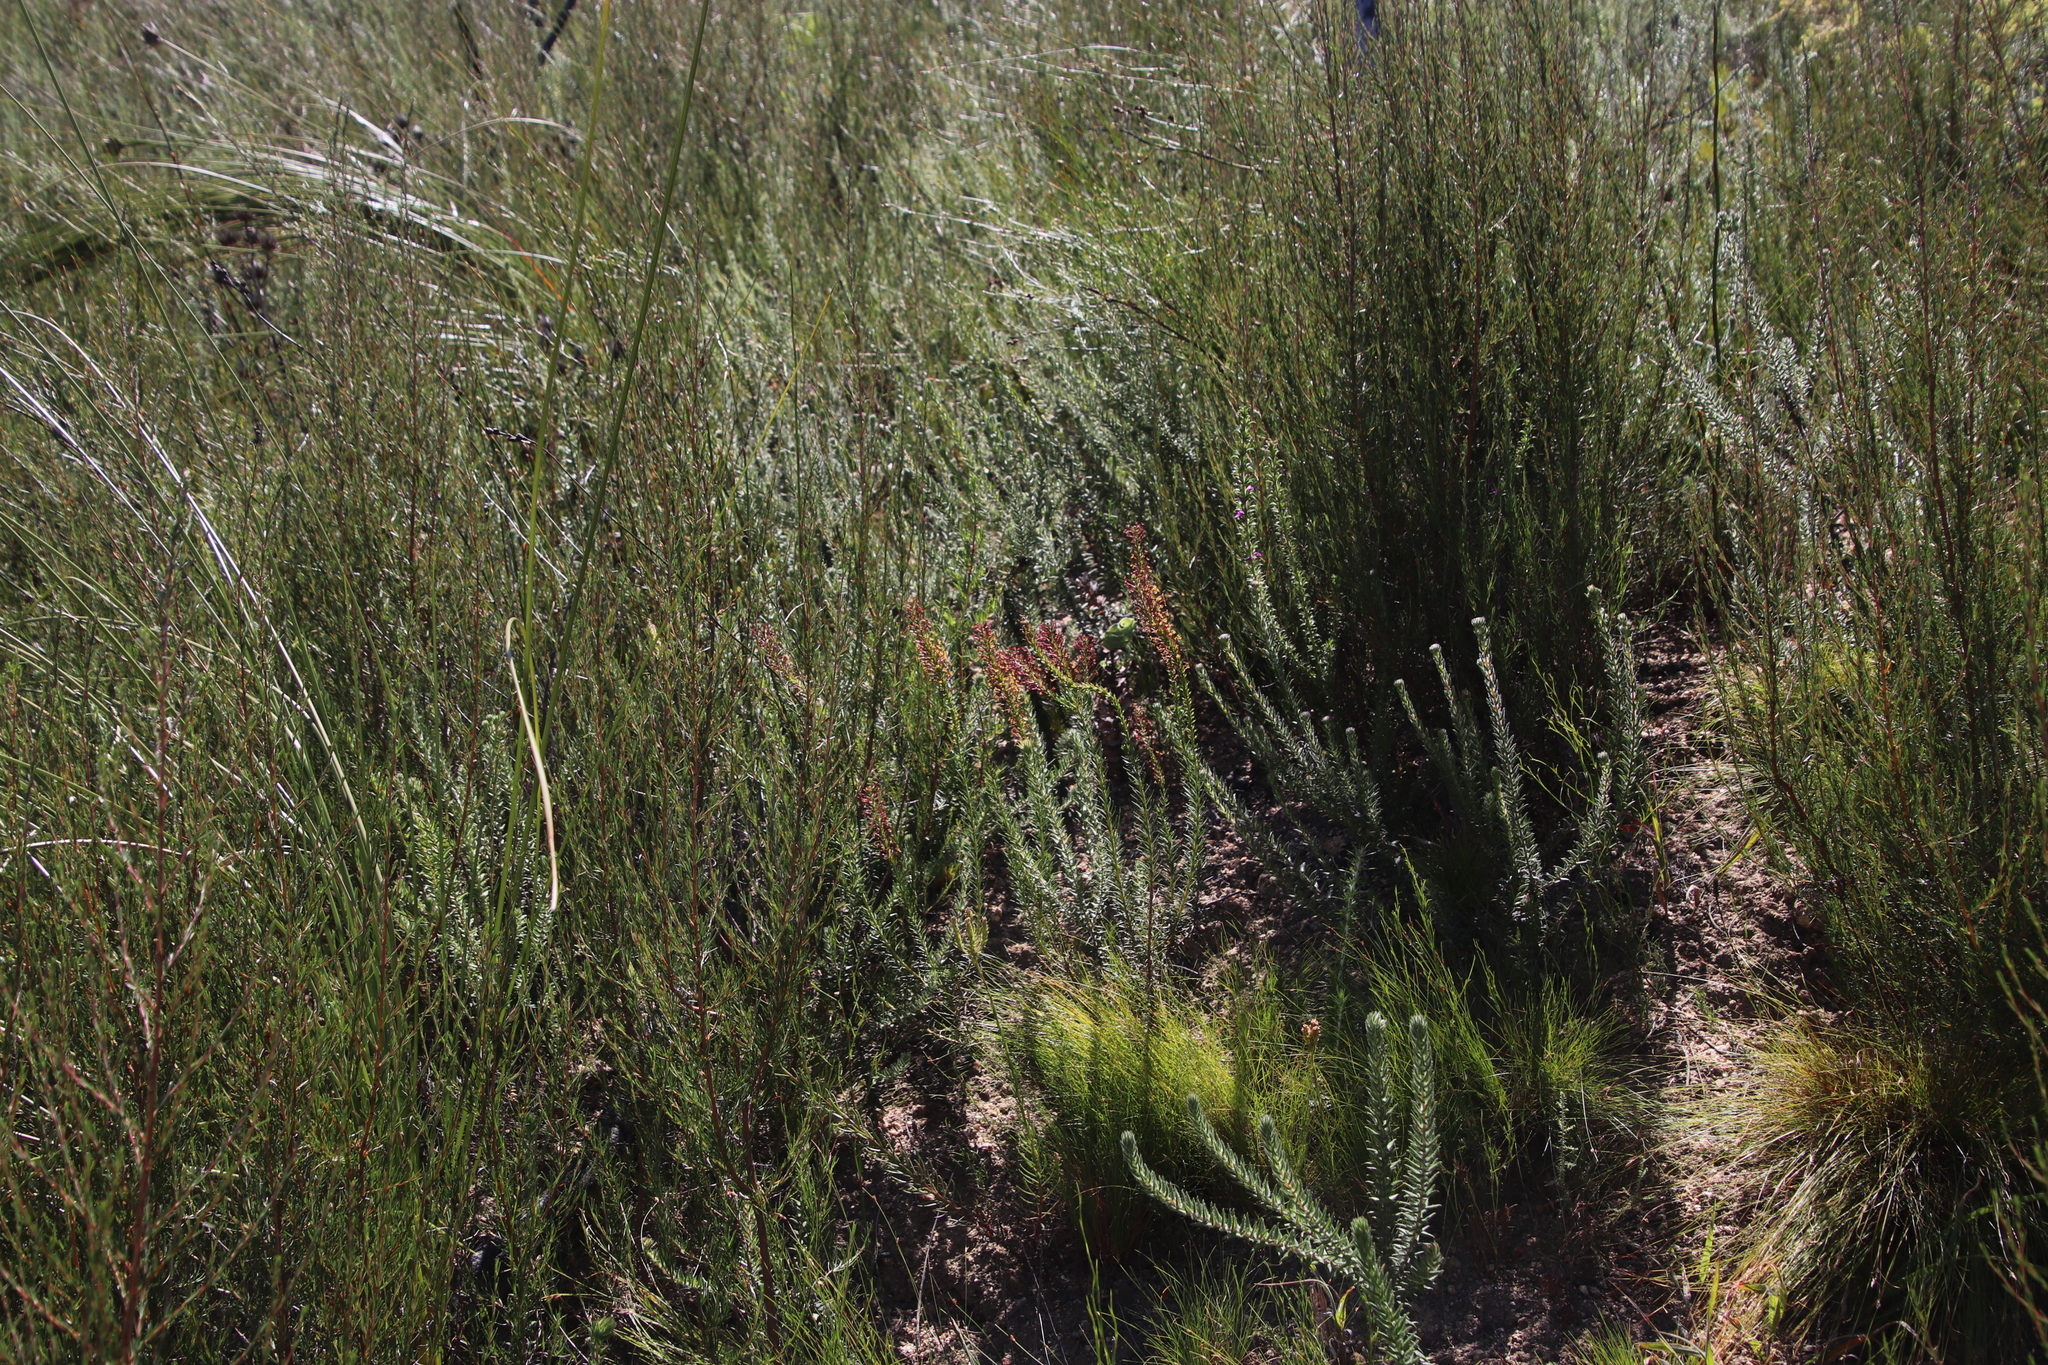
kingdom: Plantae
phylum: Tracheophyta
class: Magnoliopsida
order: Lamiales
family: Scrophulariaceae
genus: Microdon
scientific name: Microdon dubius
